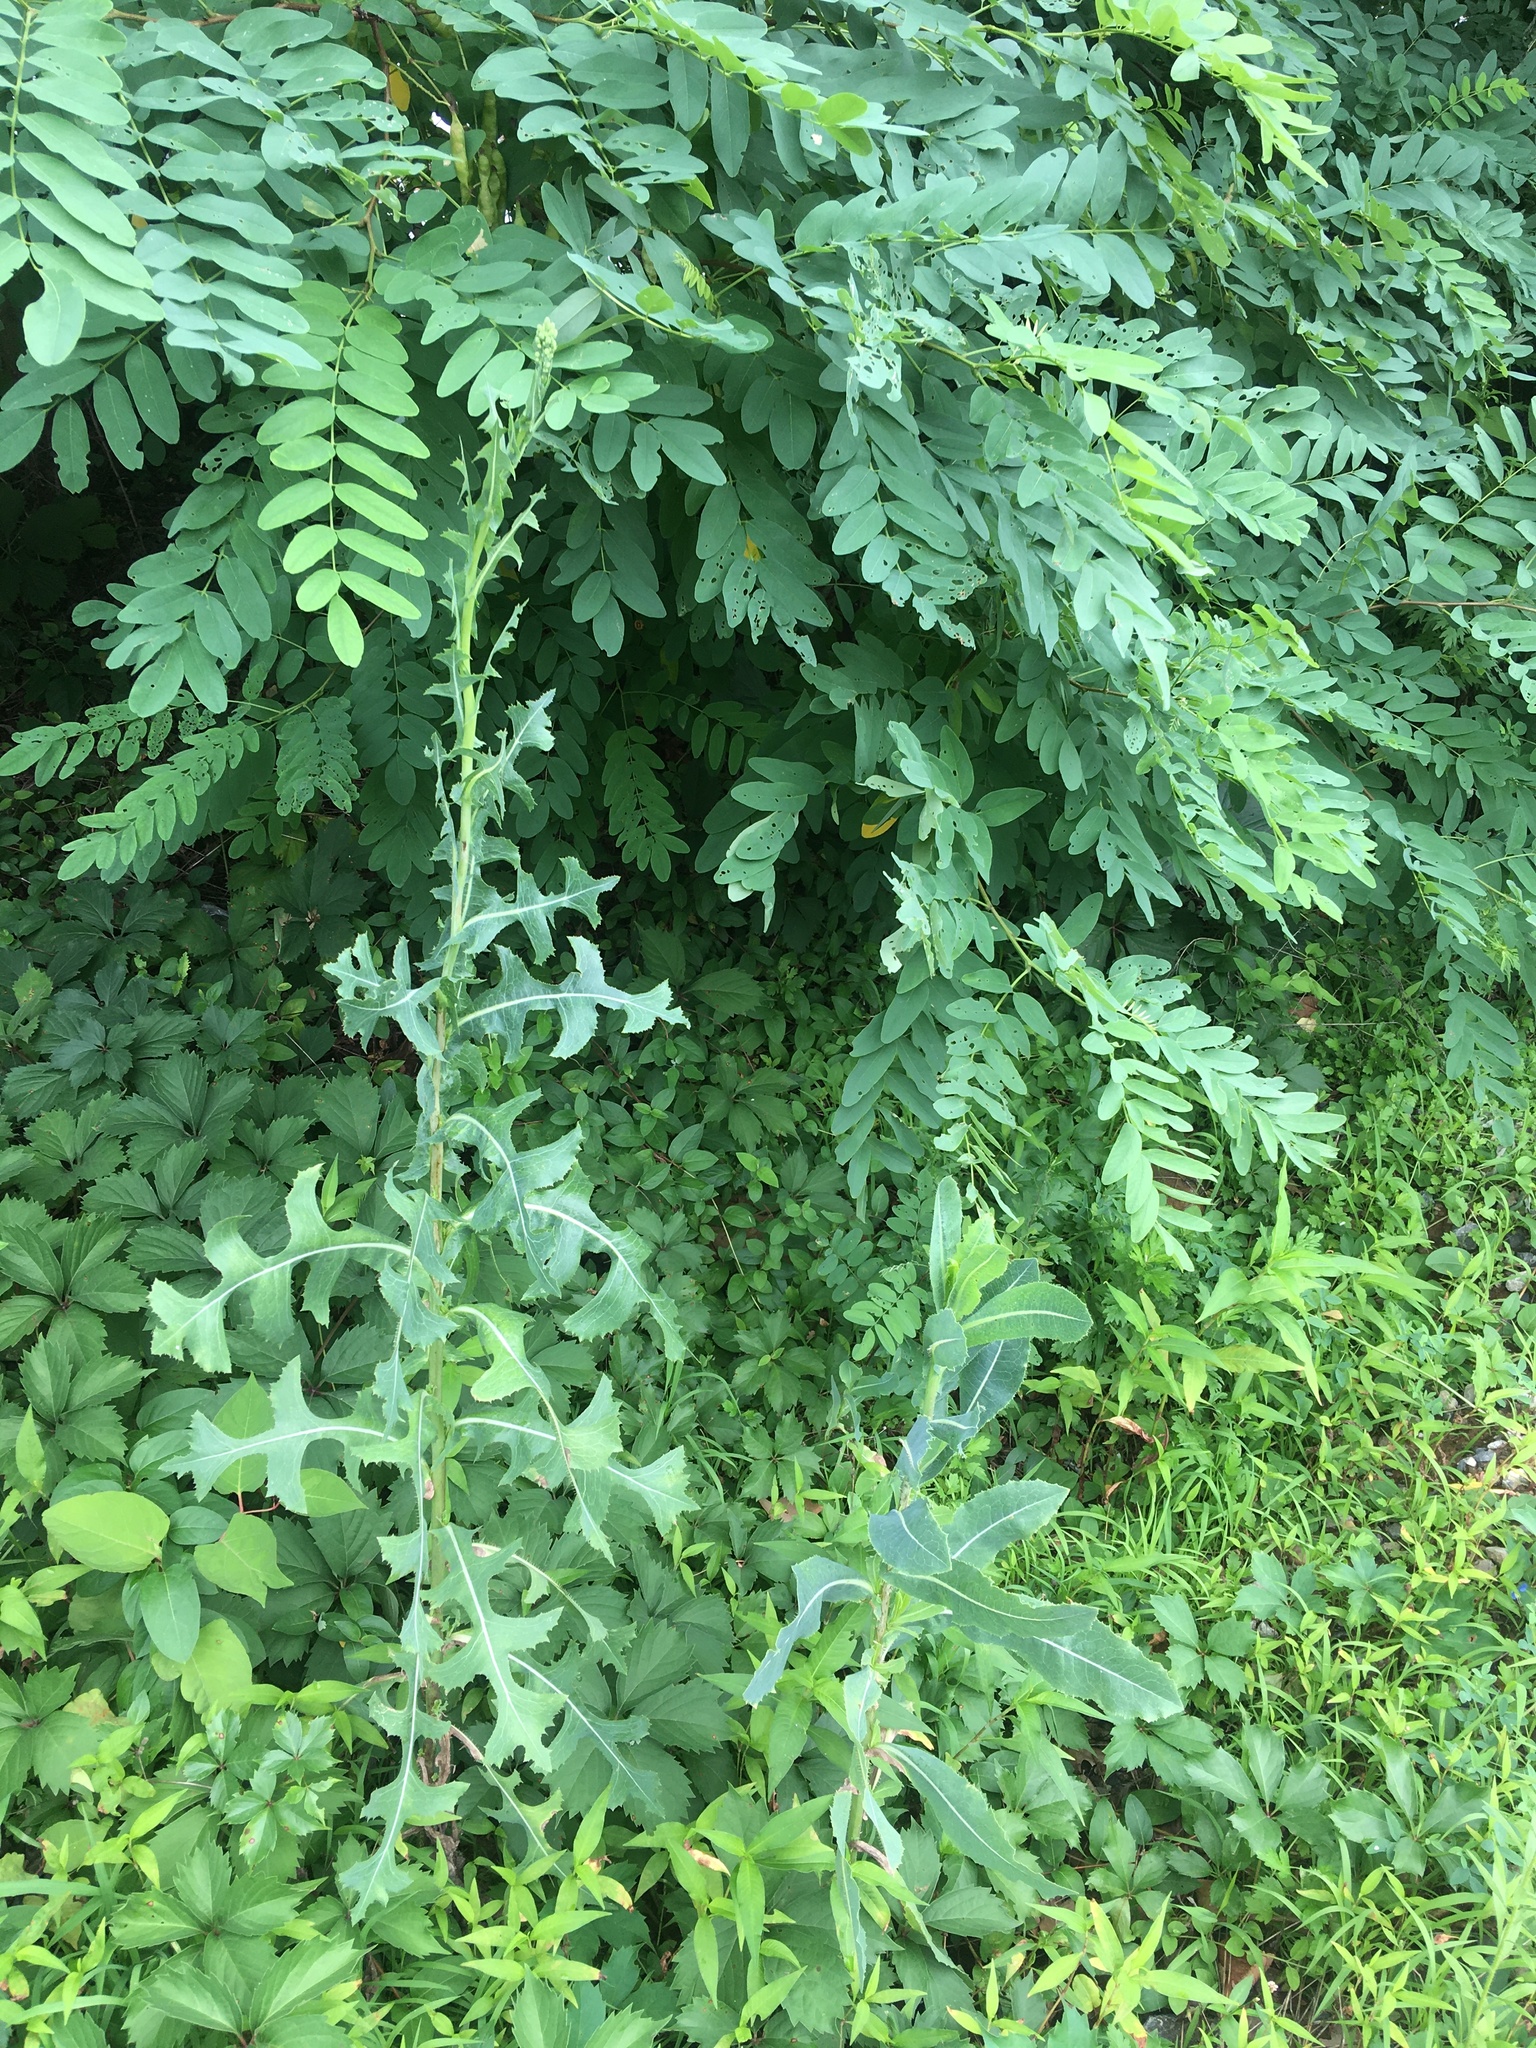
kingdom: Plantae
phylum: Tracheophyta
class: Magnoliopsida
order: Asterales
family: Asteraceae
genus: Lactuca
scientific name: Lactuca serriola
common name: Prickly lettuce
